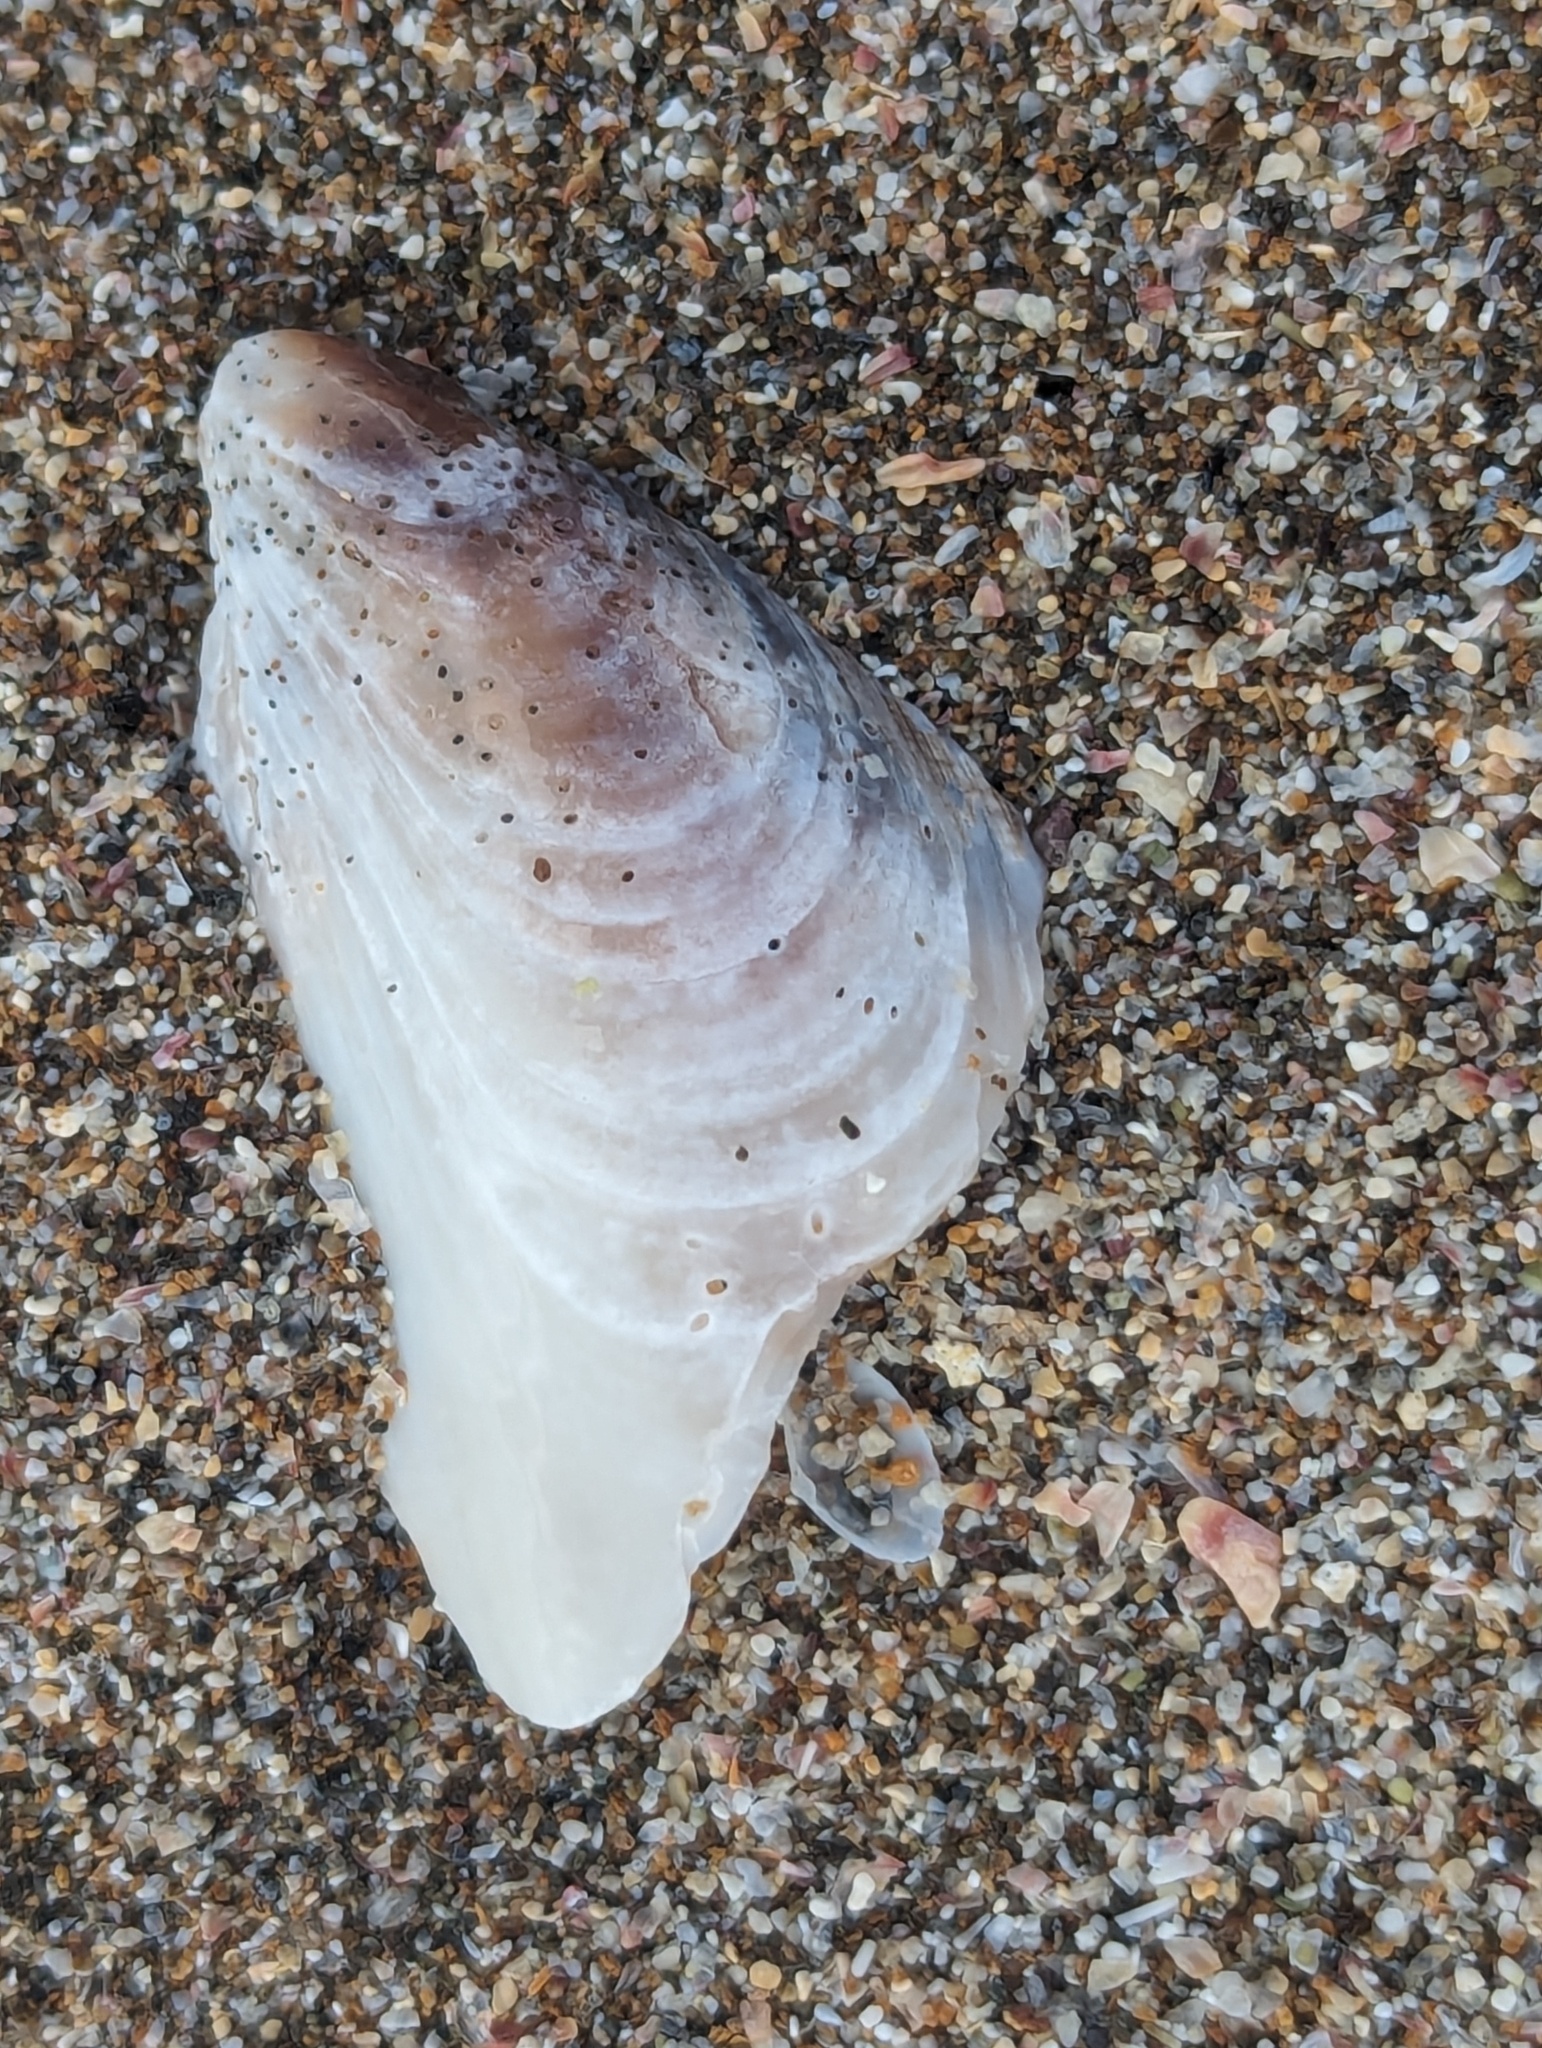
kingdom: Animalia
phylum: Mollusca
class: Bivalvia
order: Mytilida
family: Mytilidae
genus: Perna
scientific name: Perna canaliculus
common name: New zealand greenshelltm
